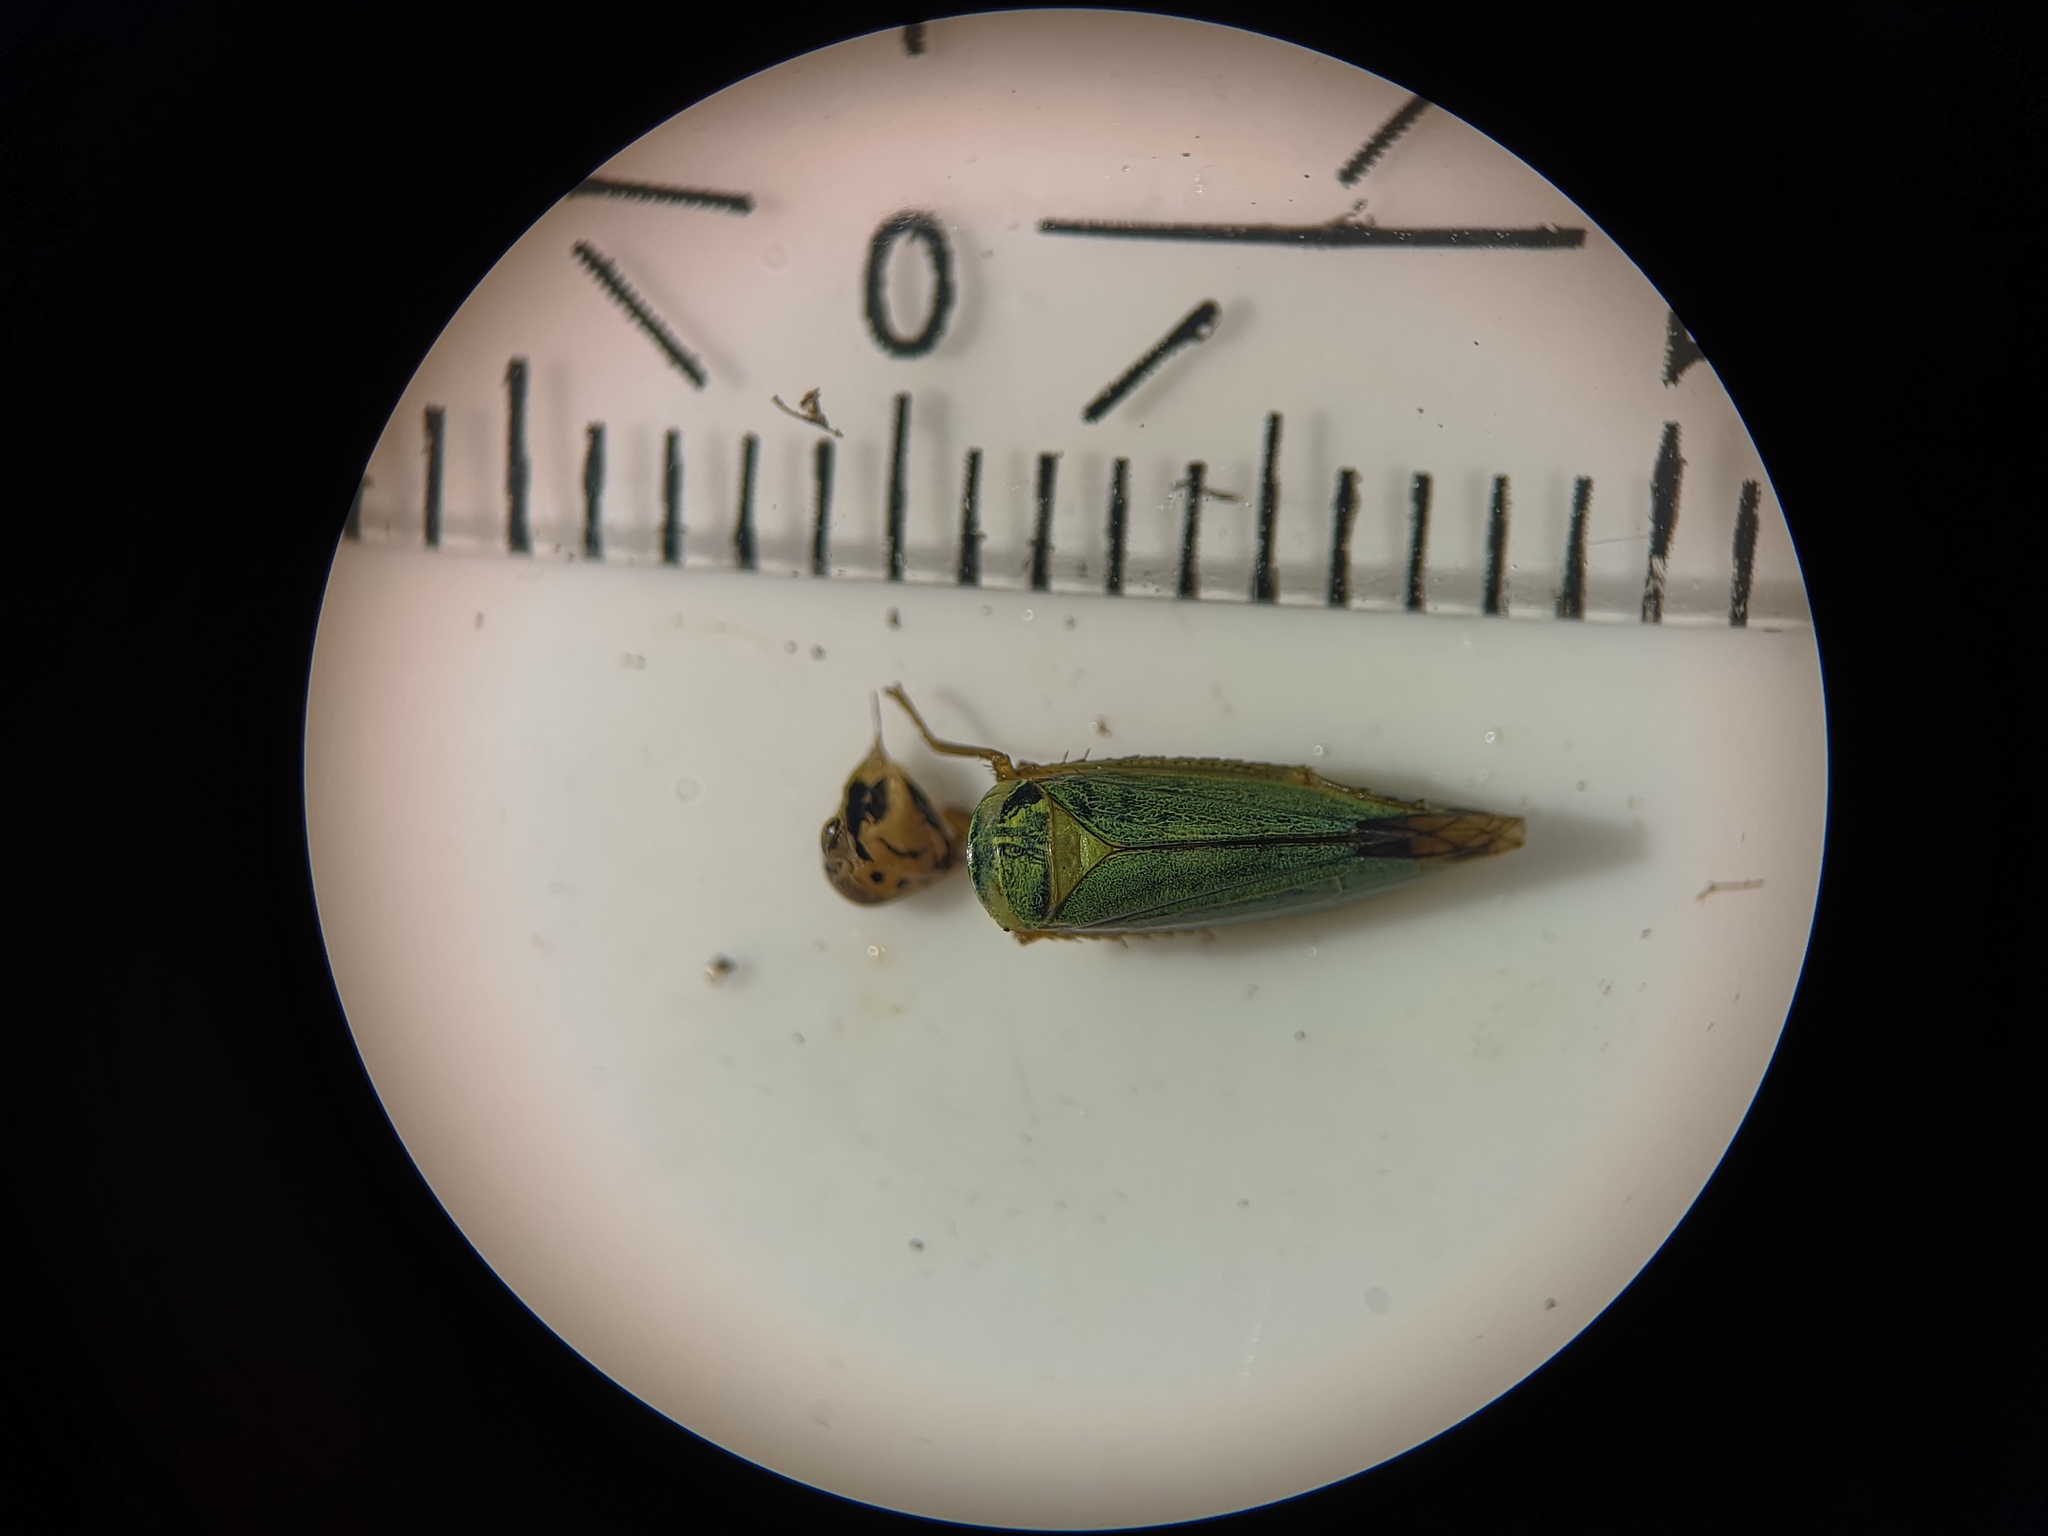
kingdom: Animalia
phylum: Arthropoda
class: Insecta
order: Hemiptera
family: Cicadellidae
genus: Cicadella
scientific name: Cicadella viridis
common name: Leafhopper
